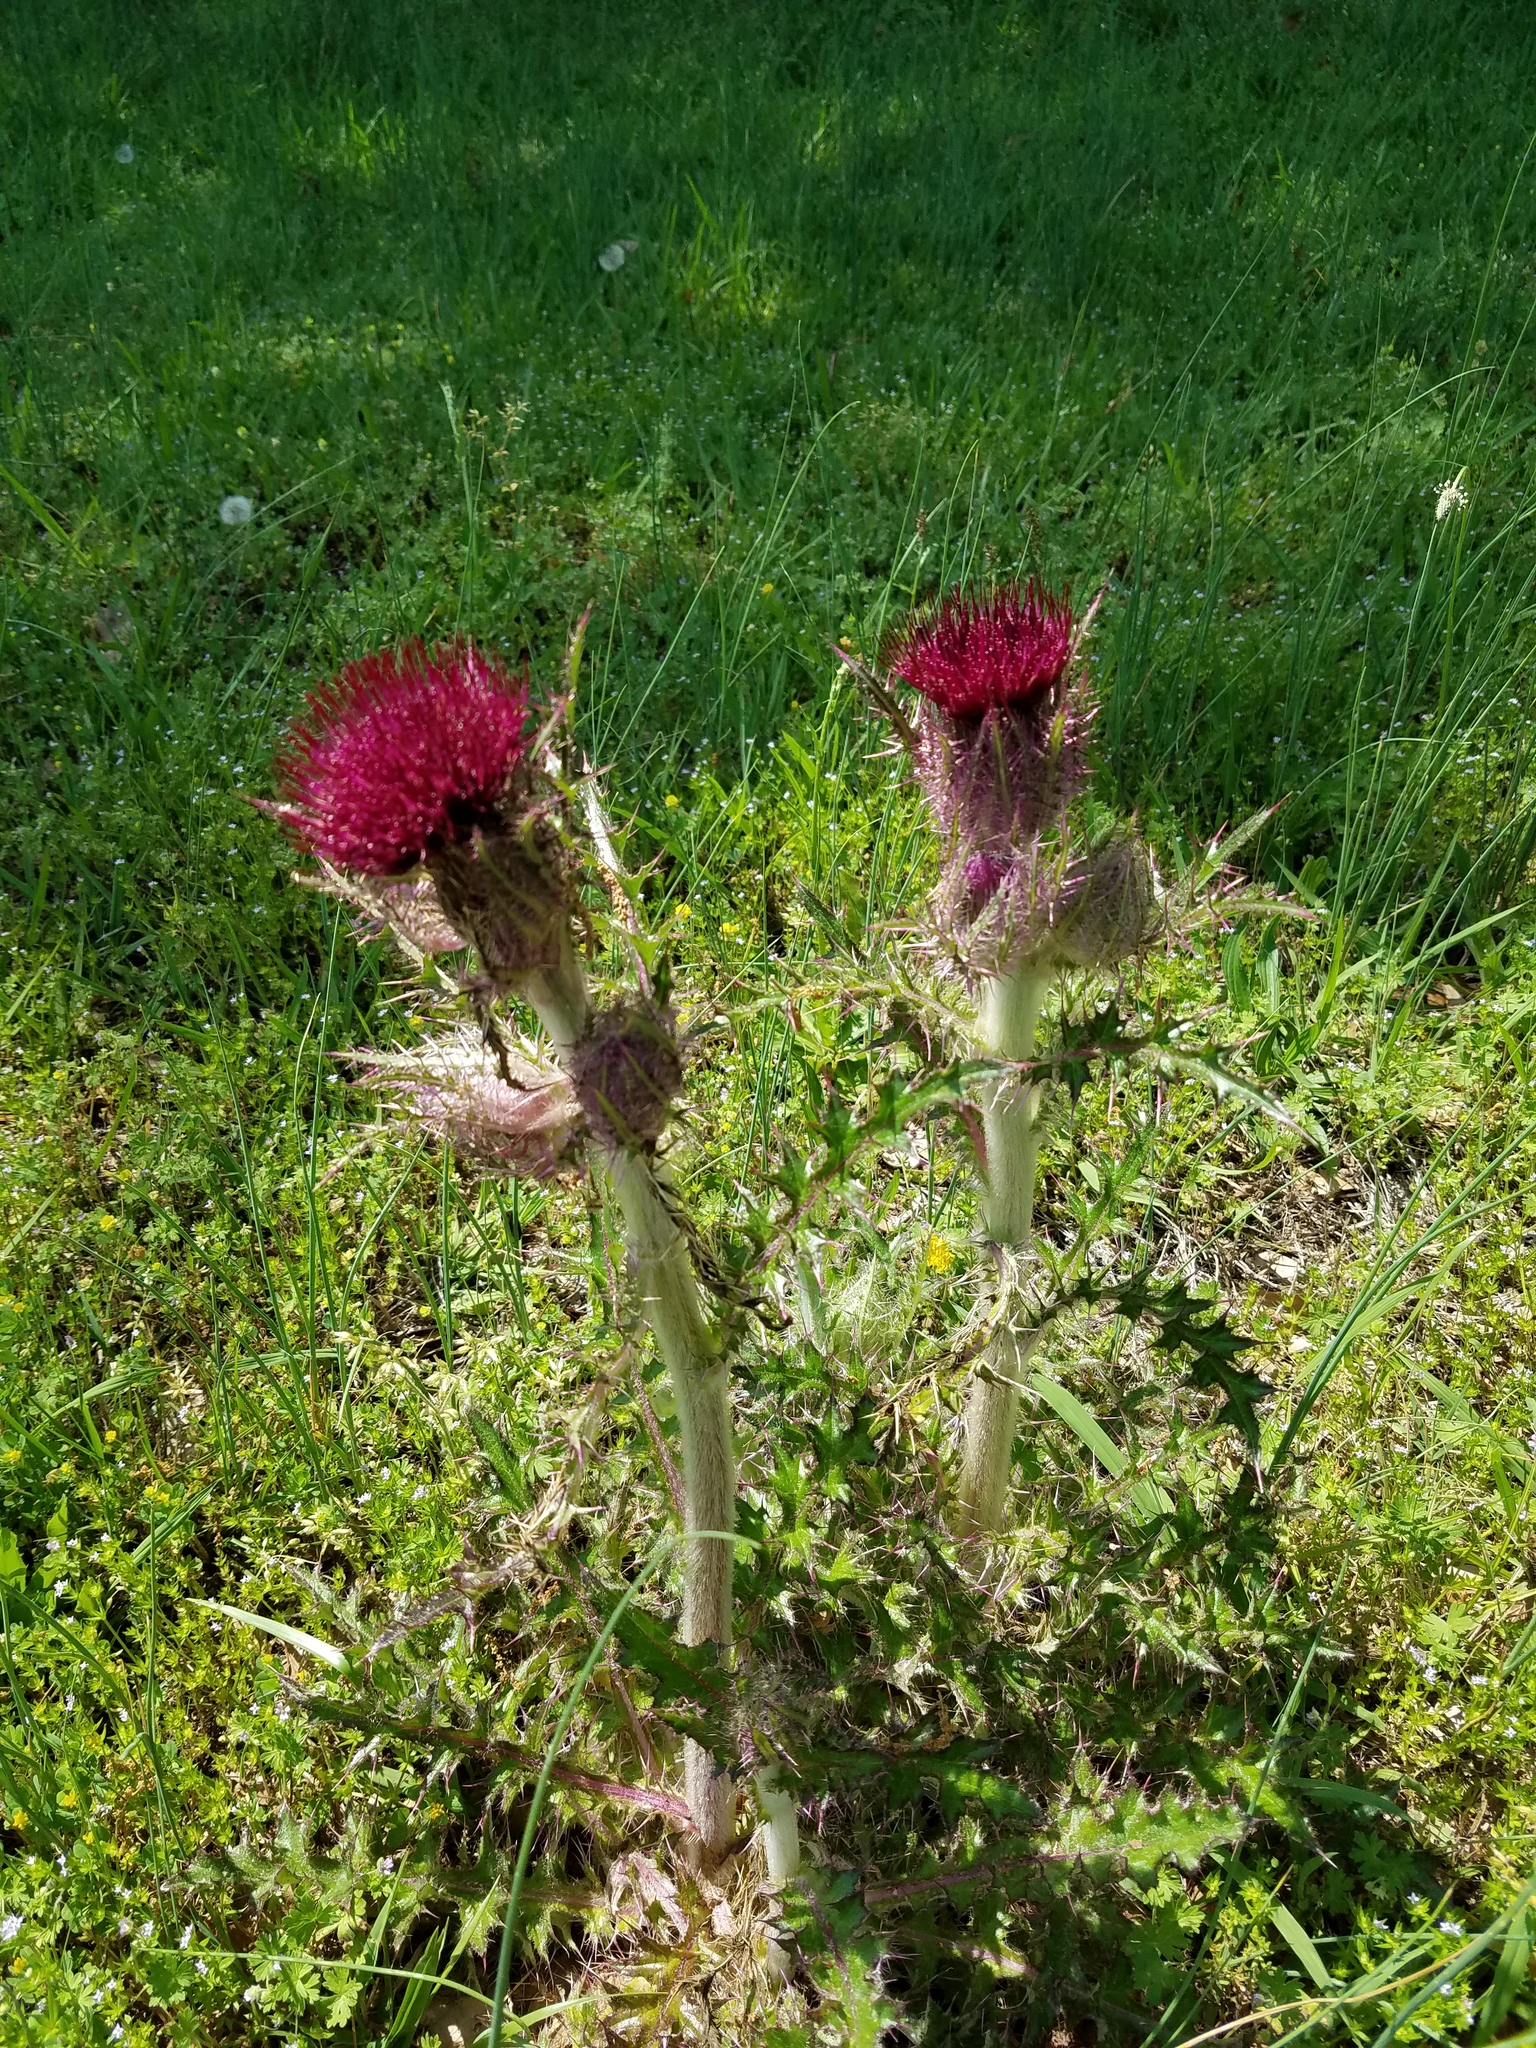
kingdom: Plantae
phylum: Tracheophyta
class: Magnoliopsida
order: Asterales
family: Asteraceae
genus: Cirsium
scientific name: Cirsium horridulum
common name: Bristly thistle
